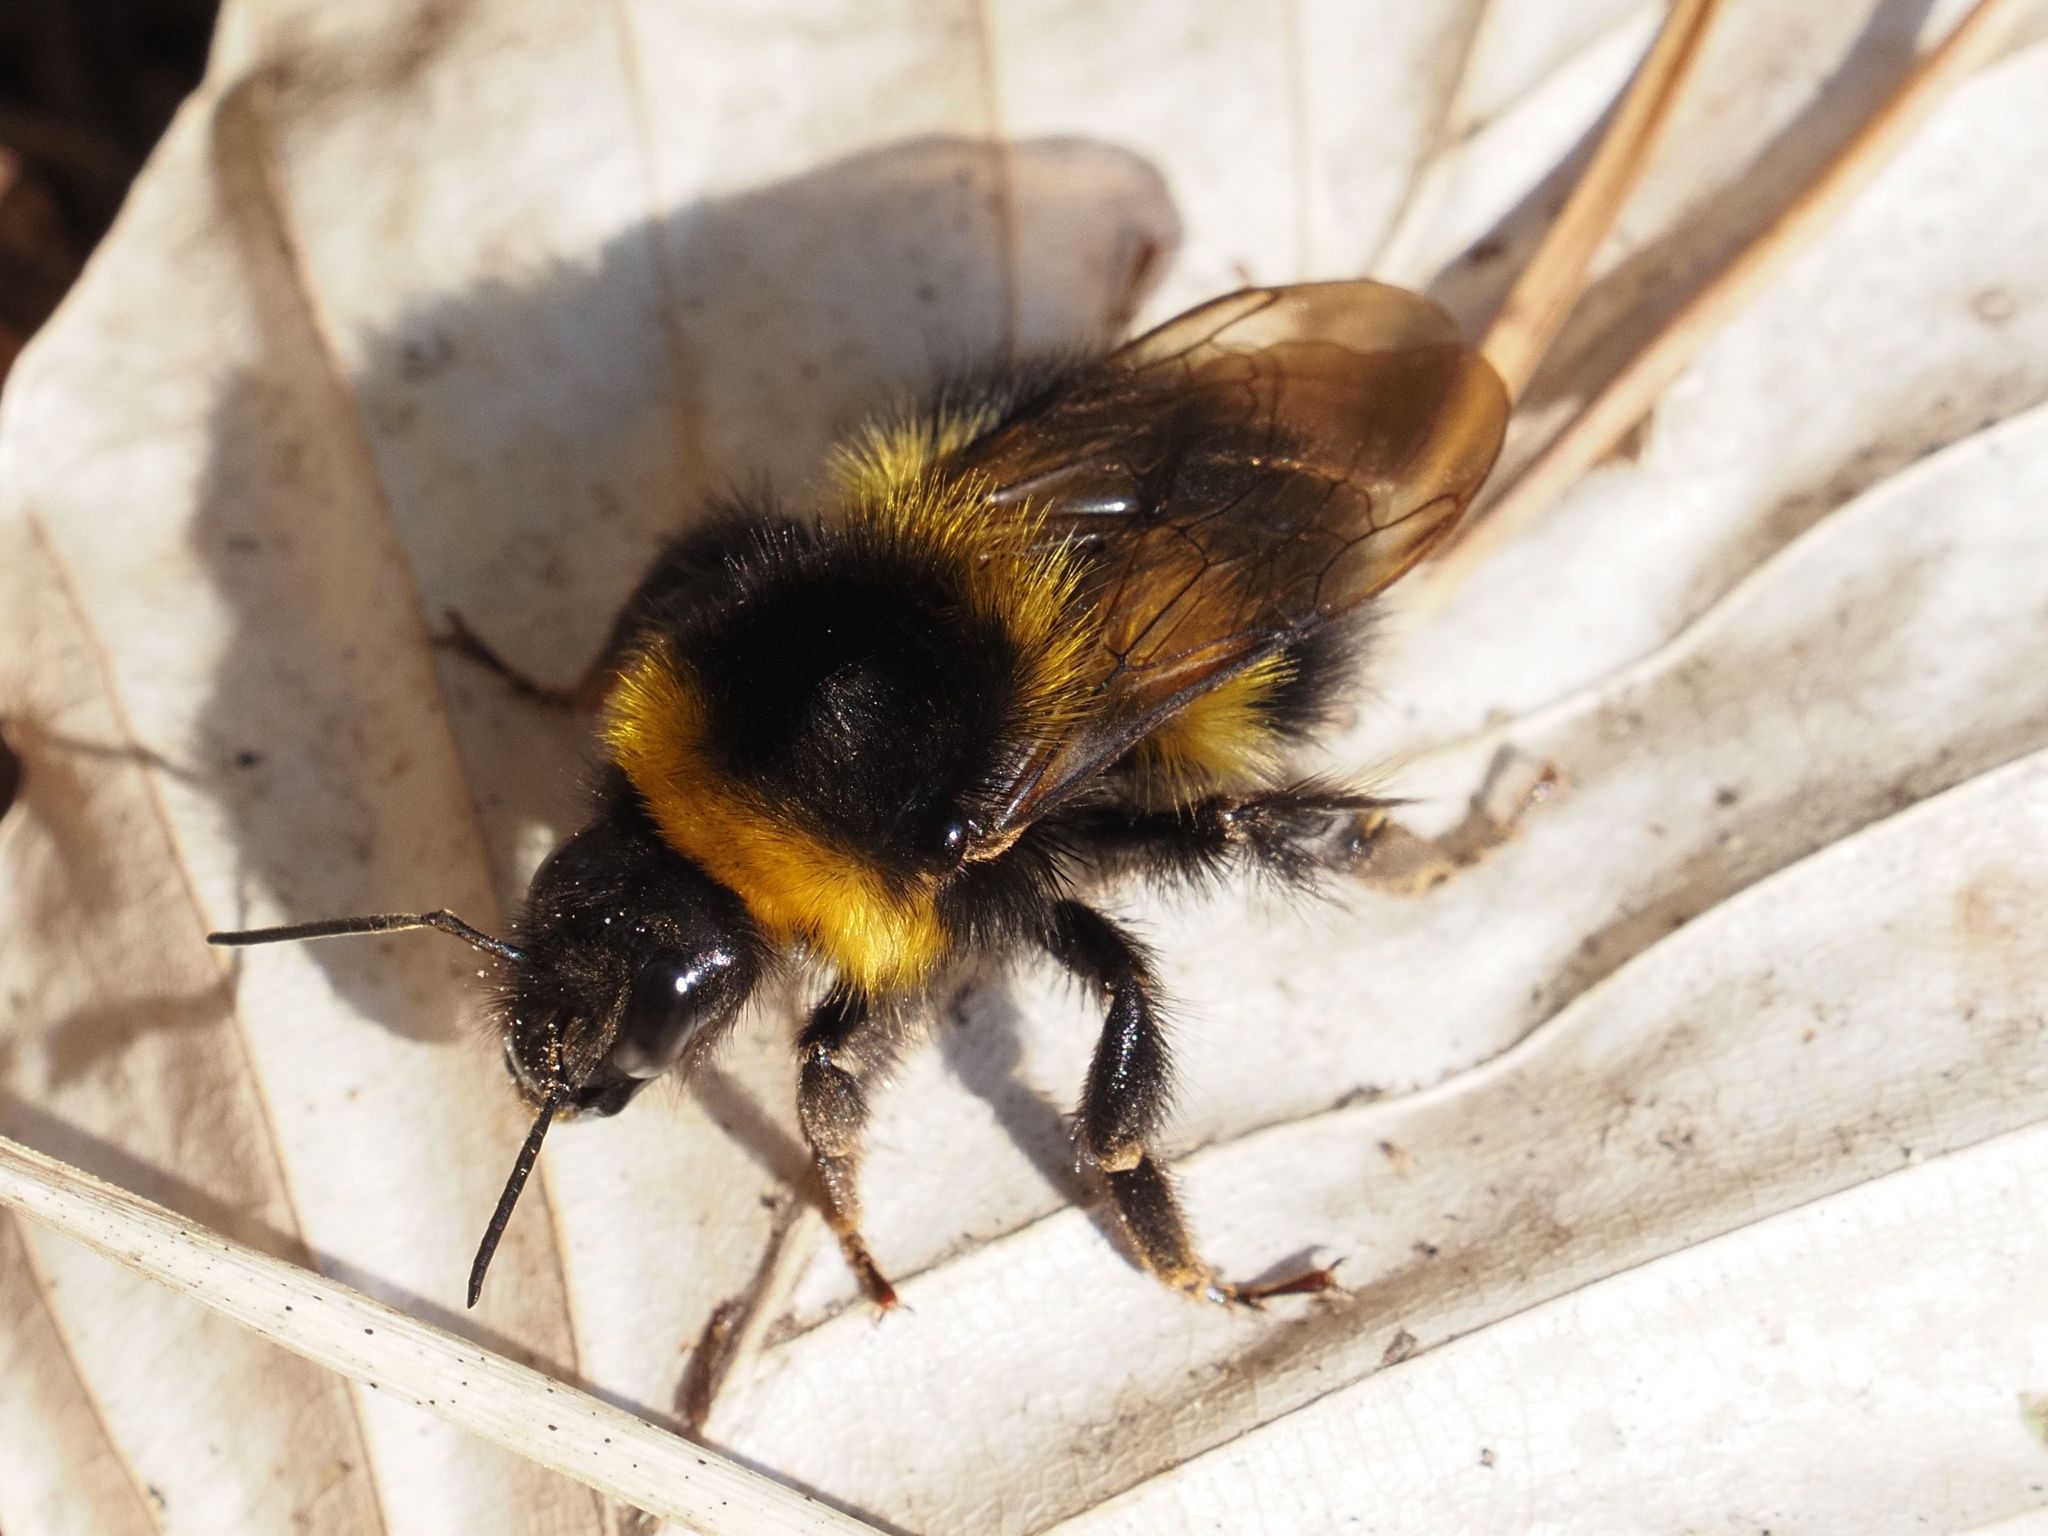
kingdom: Animalia
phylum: Arthropoda
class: Insecta
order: Hymenoptera
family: Apidae
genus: Bombus
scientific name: Bombus hortorum
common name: Garden bumblebee
